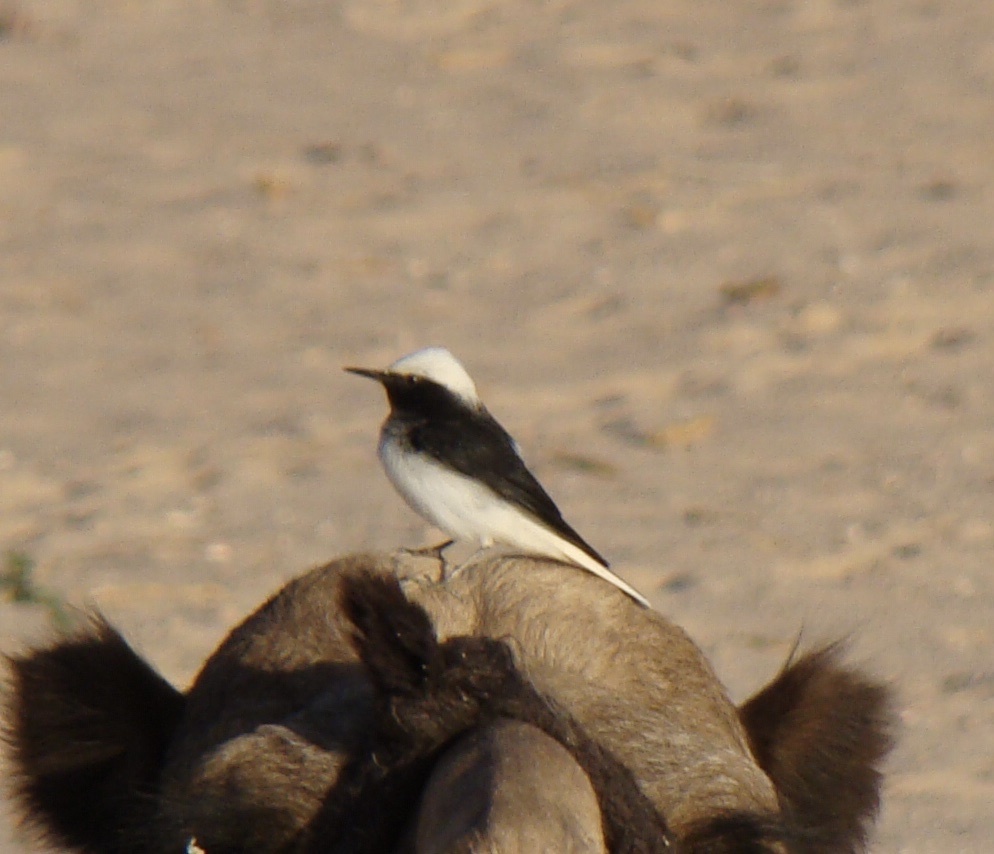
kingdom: Animalia
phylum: Chordata
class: Aves
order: Passeriformes
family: Muscicapidae
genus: Oenanthe
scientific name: Oenanthe monacha
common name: Hooded wheatear
